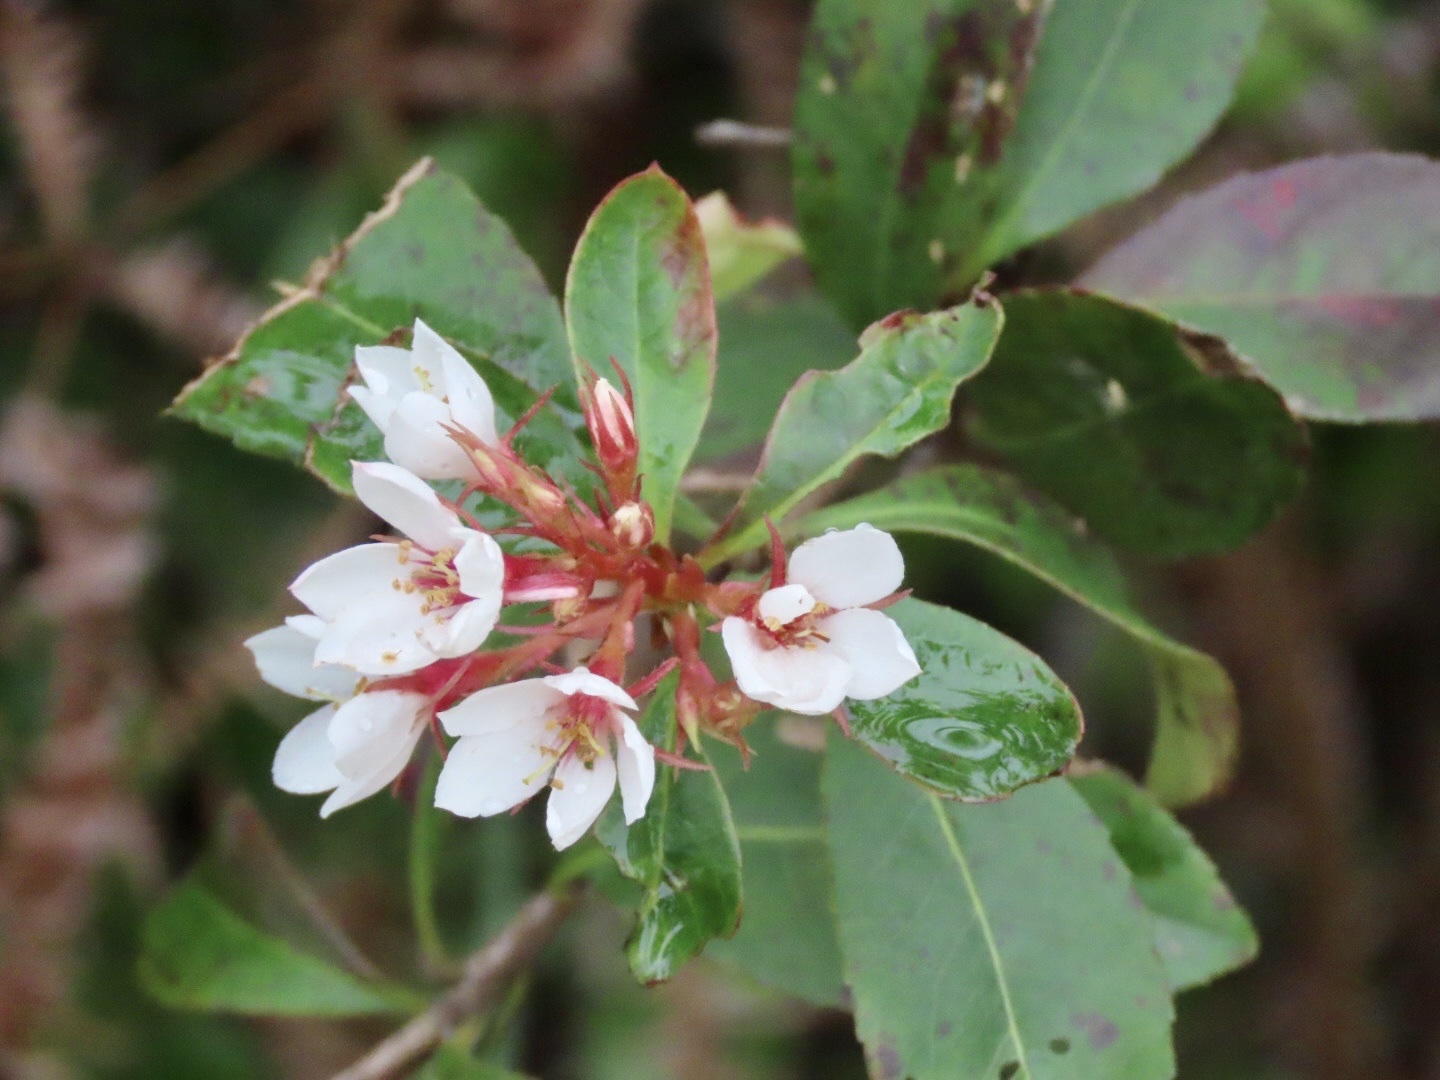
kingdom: Plantae
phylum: Tracheophyta
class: Magnoliopsida
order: Rosales
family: Rosaceae
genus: Rhaphiolepis
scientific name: Rhaphiolepis indica
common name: India-hawthorn
